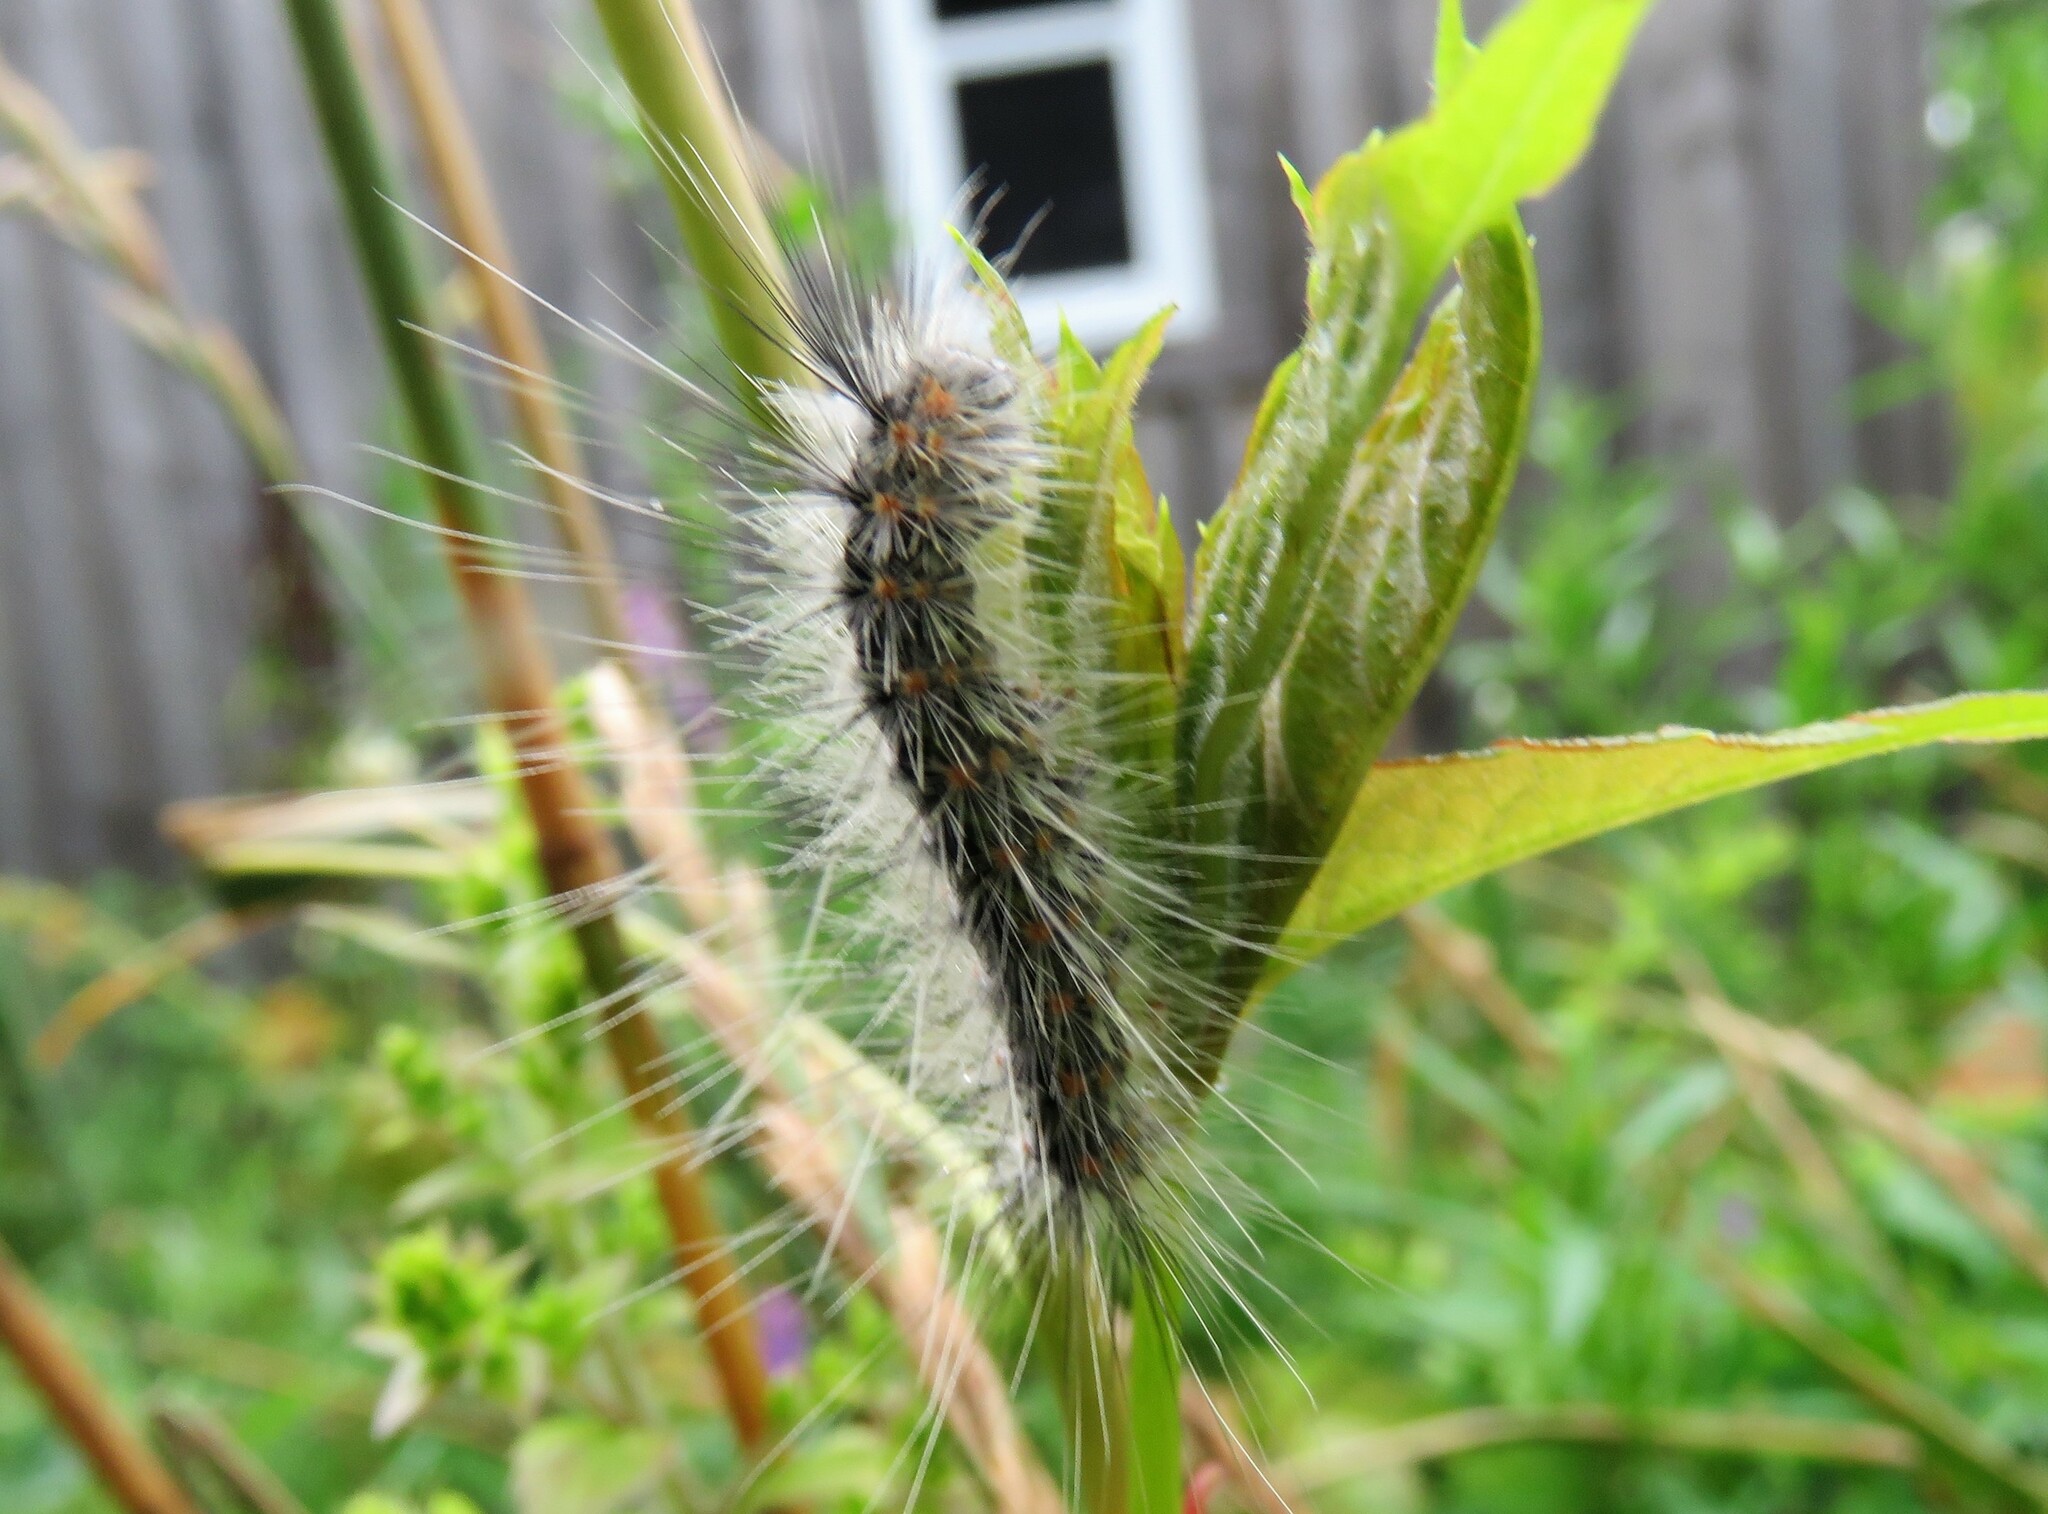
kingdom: Animalia
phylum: Arthropoda
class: Insecta
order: Lepidoptera
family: Erebidae
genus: Hyphantria
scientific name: Hyphantria cunea
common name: American white moth
